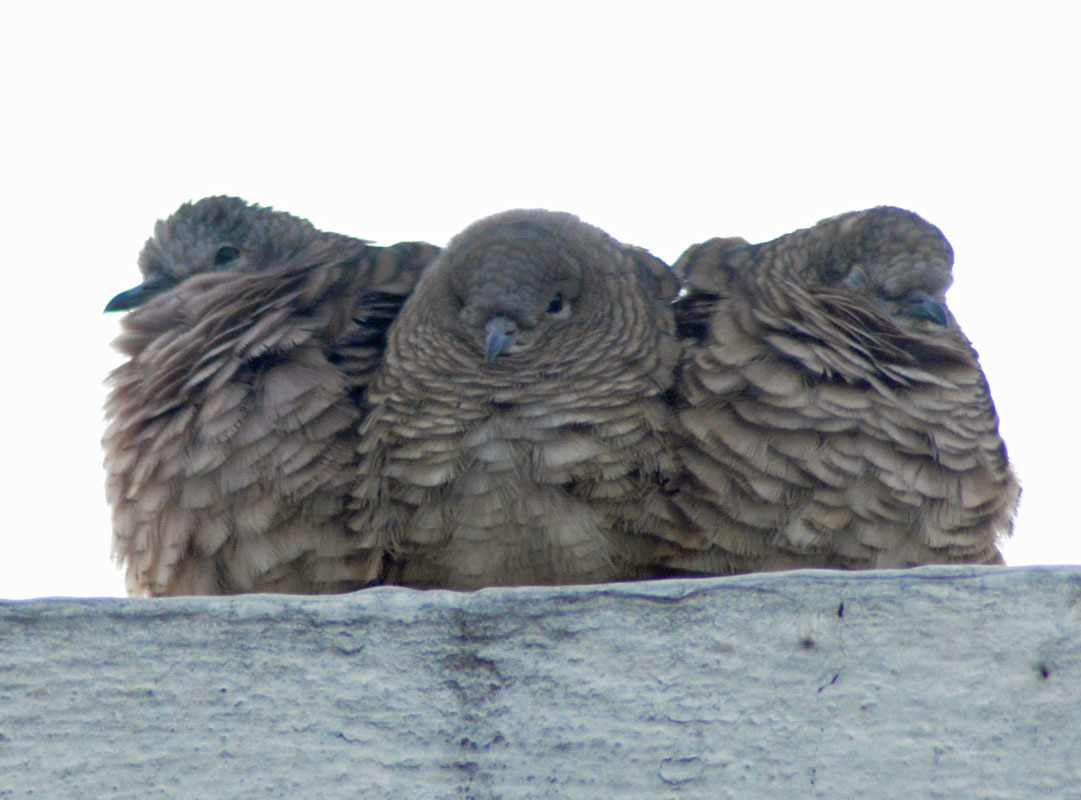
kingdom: Animalia
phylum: Chordata
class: Aves
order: Columbiformes
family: Columbidae
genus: Columbina
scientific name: Columbina inca
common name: Inca dove
